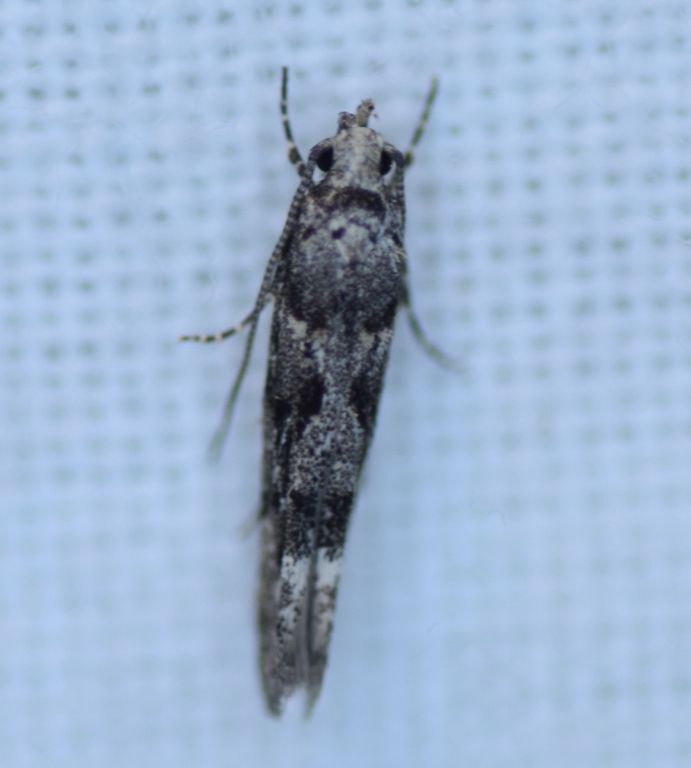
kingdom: Animalia
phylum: Arthropoda
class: Insecta
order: Lepidoptera
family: Gelechiidae
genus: Recurvaria
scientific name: Recurvaria nanella
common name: Gelechiid moth
